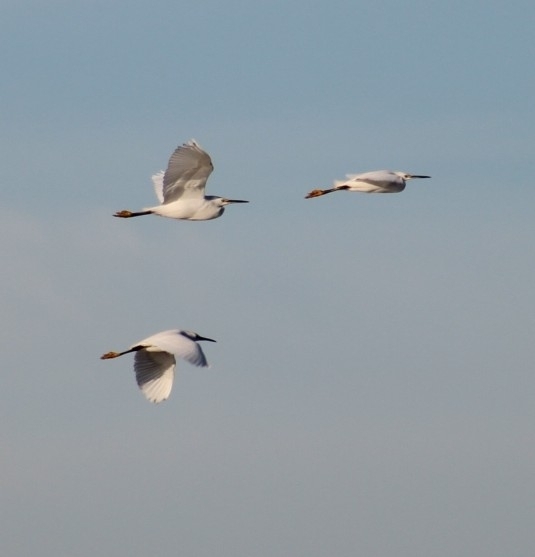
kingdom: Animalia
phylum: Chordata
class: Aves
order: Pelecaniformes
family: Ardeidae
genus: Egretta
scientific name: Egretta thula
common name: Snowy egret
